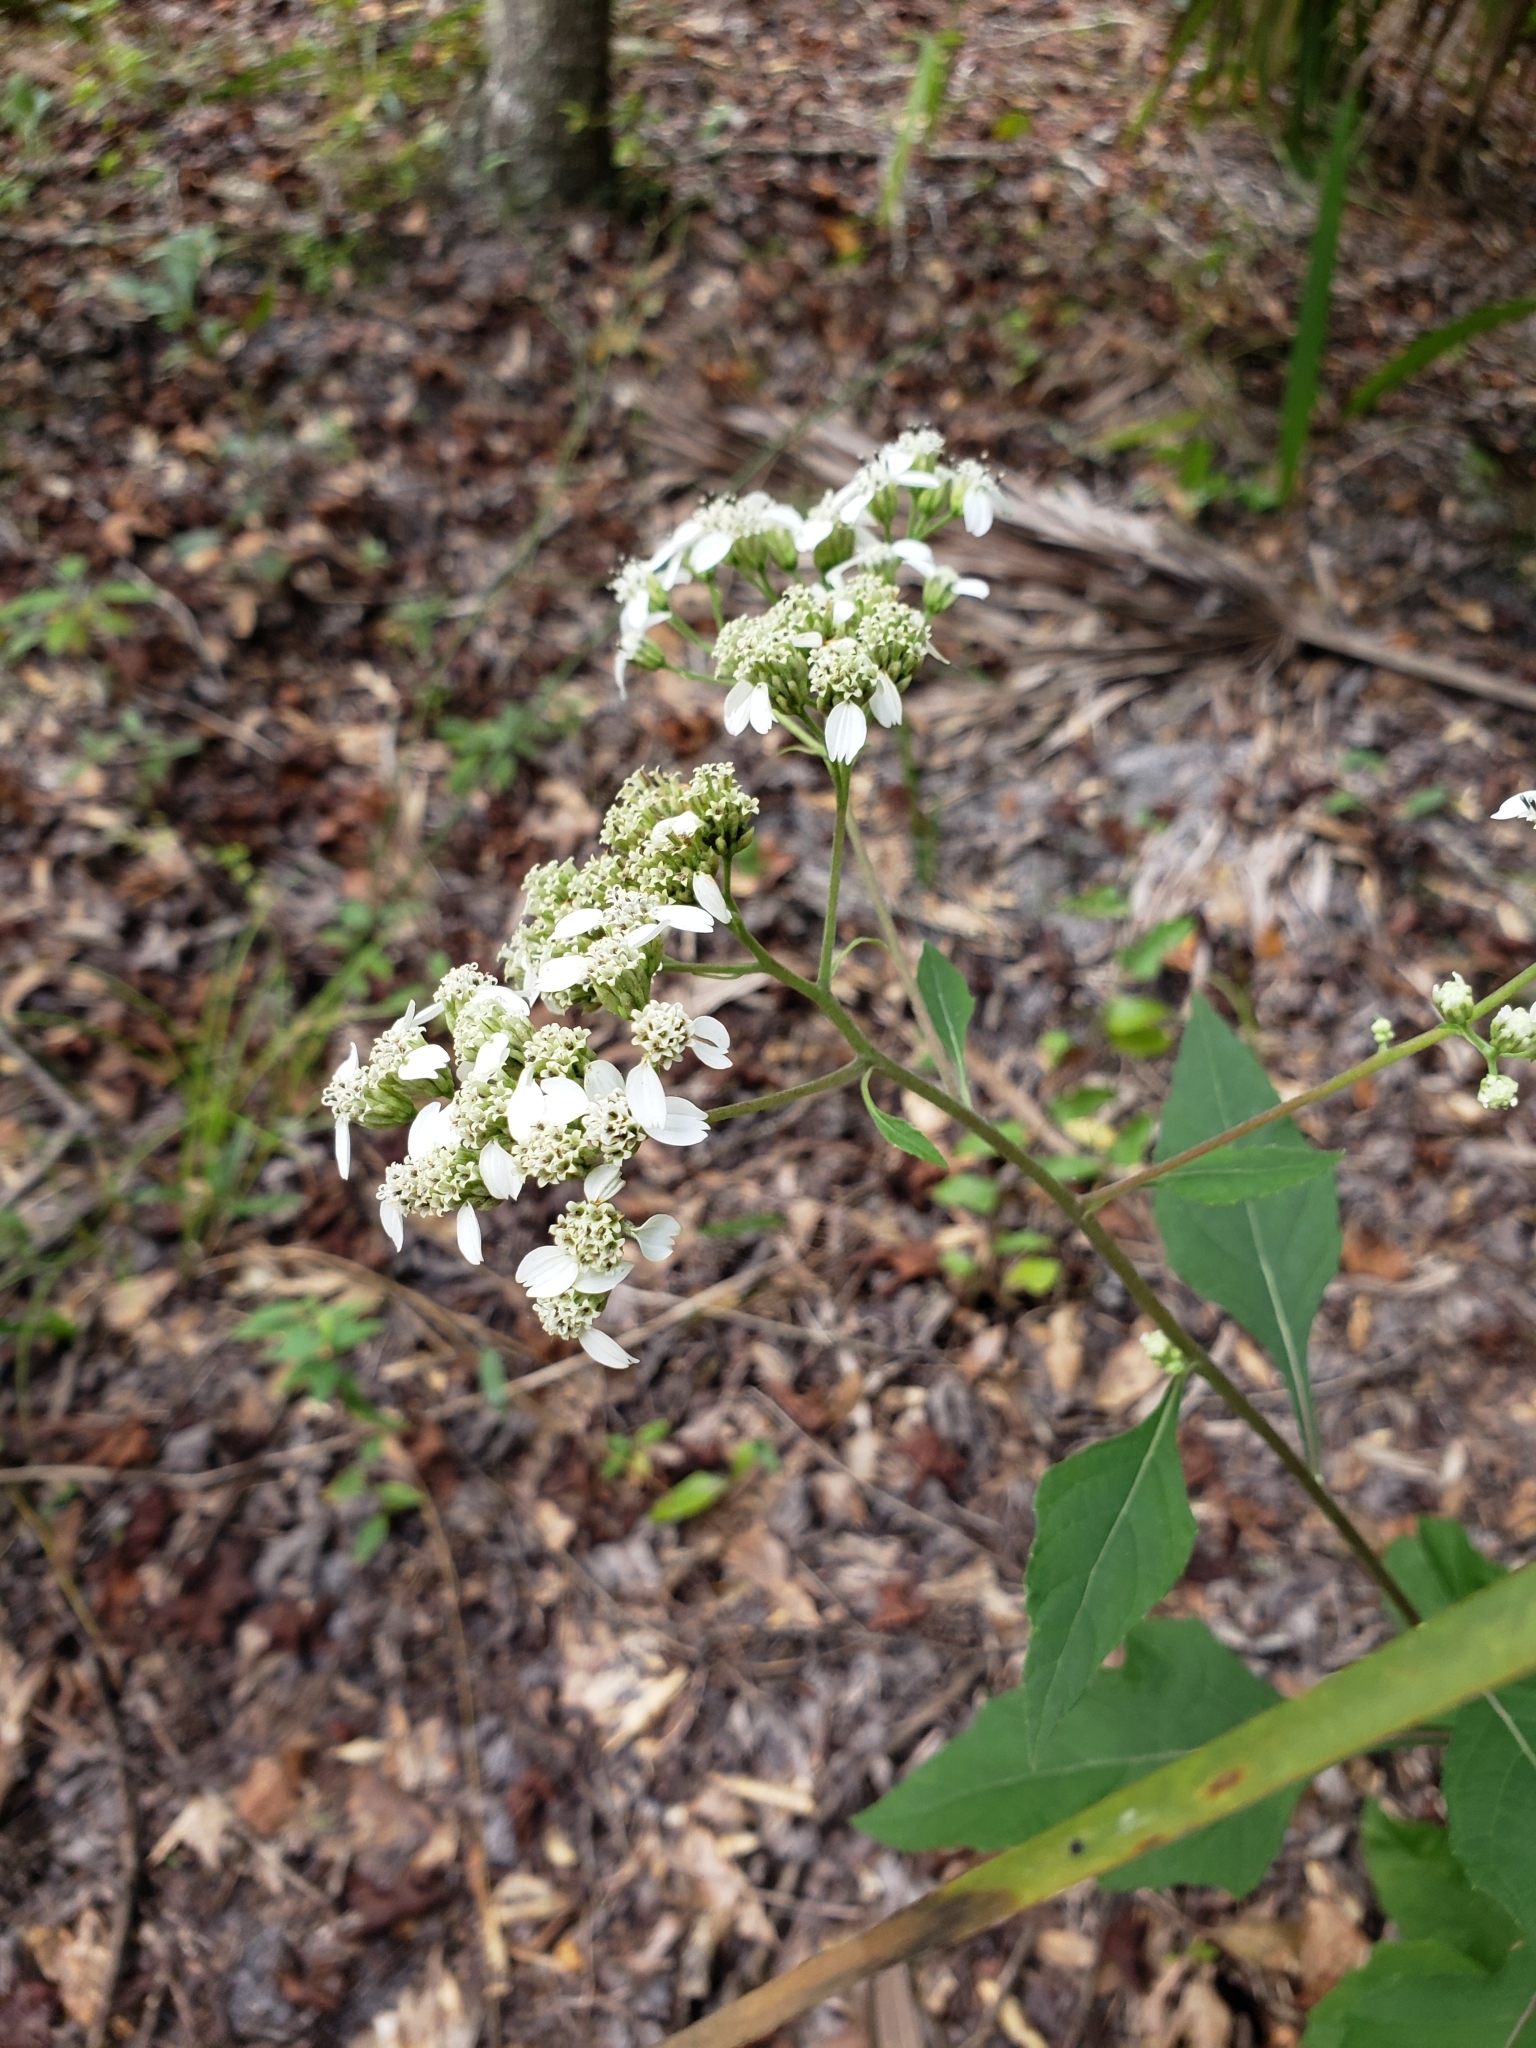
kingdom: Plantae
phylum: Tracheophyta
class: Magnoliopsida
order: Asterales
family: Asteraceae
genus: Verbesina
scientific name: Verbesina virginica
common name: Frostweed
